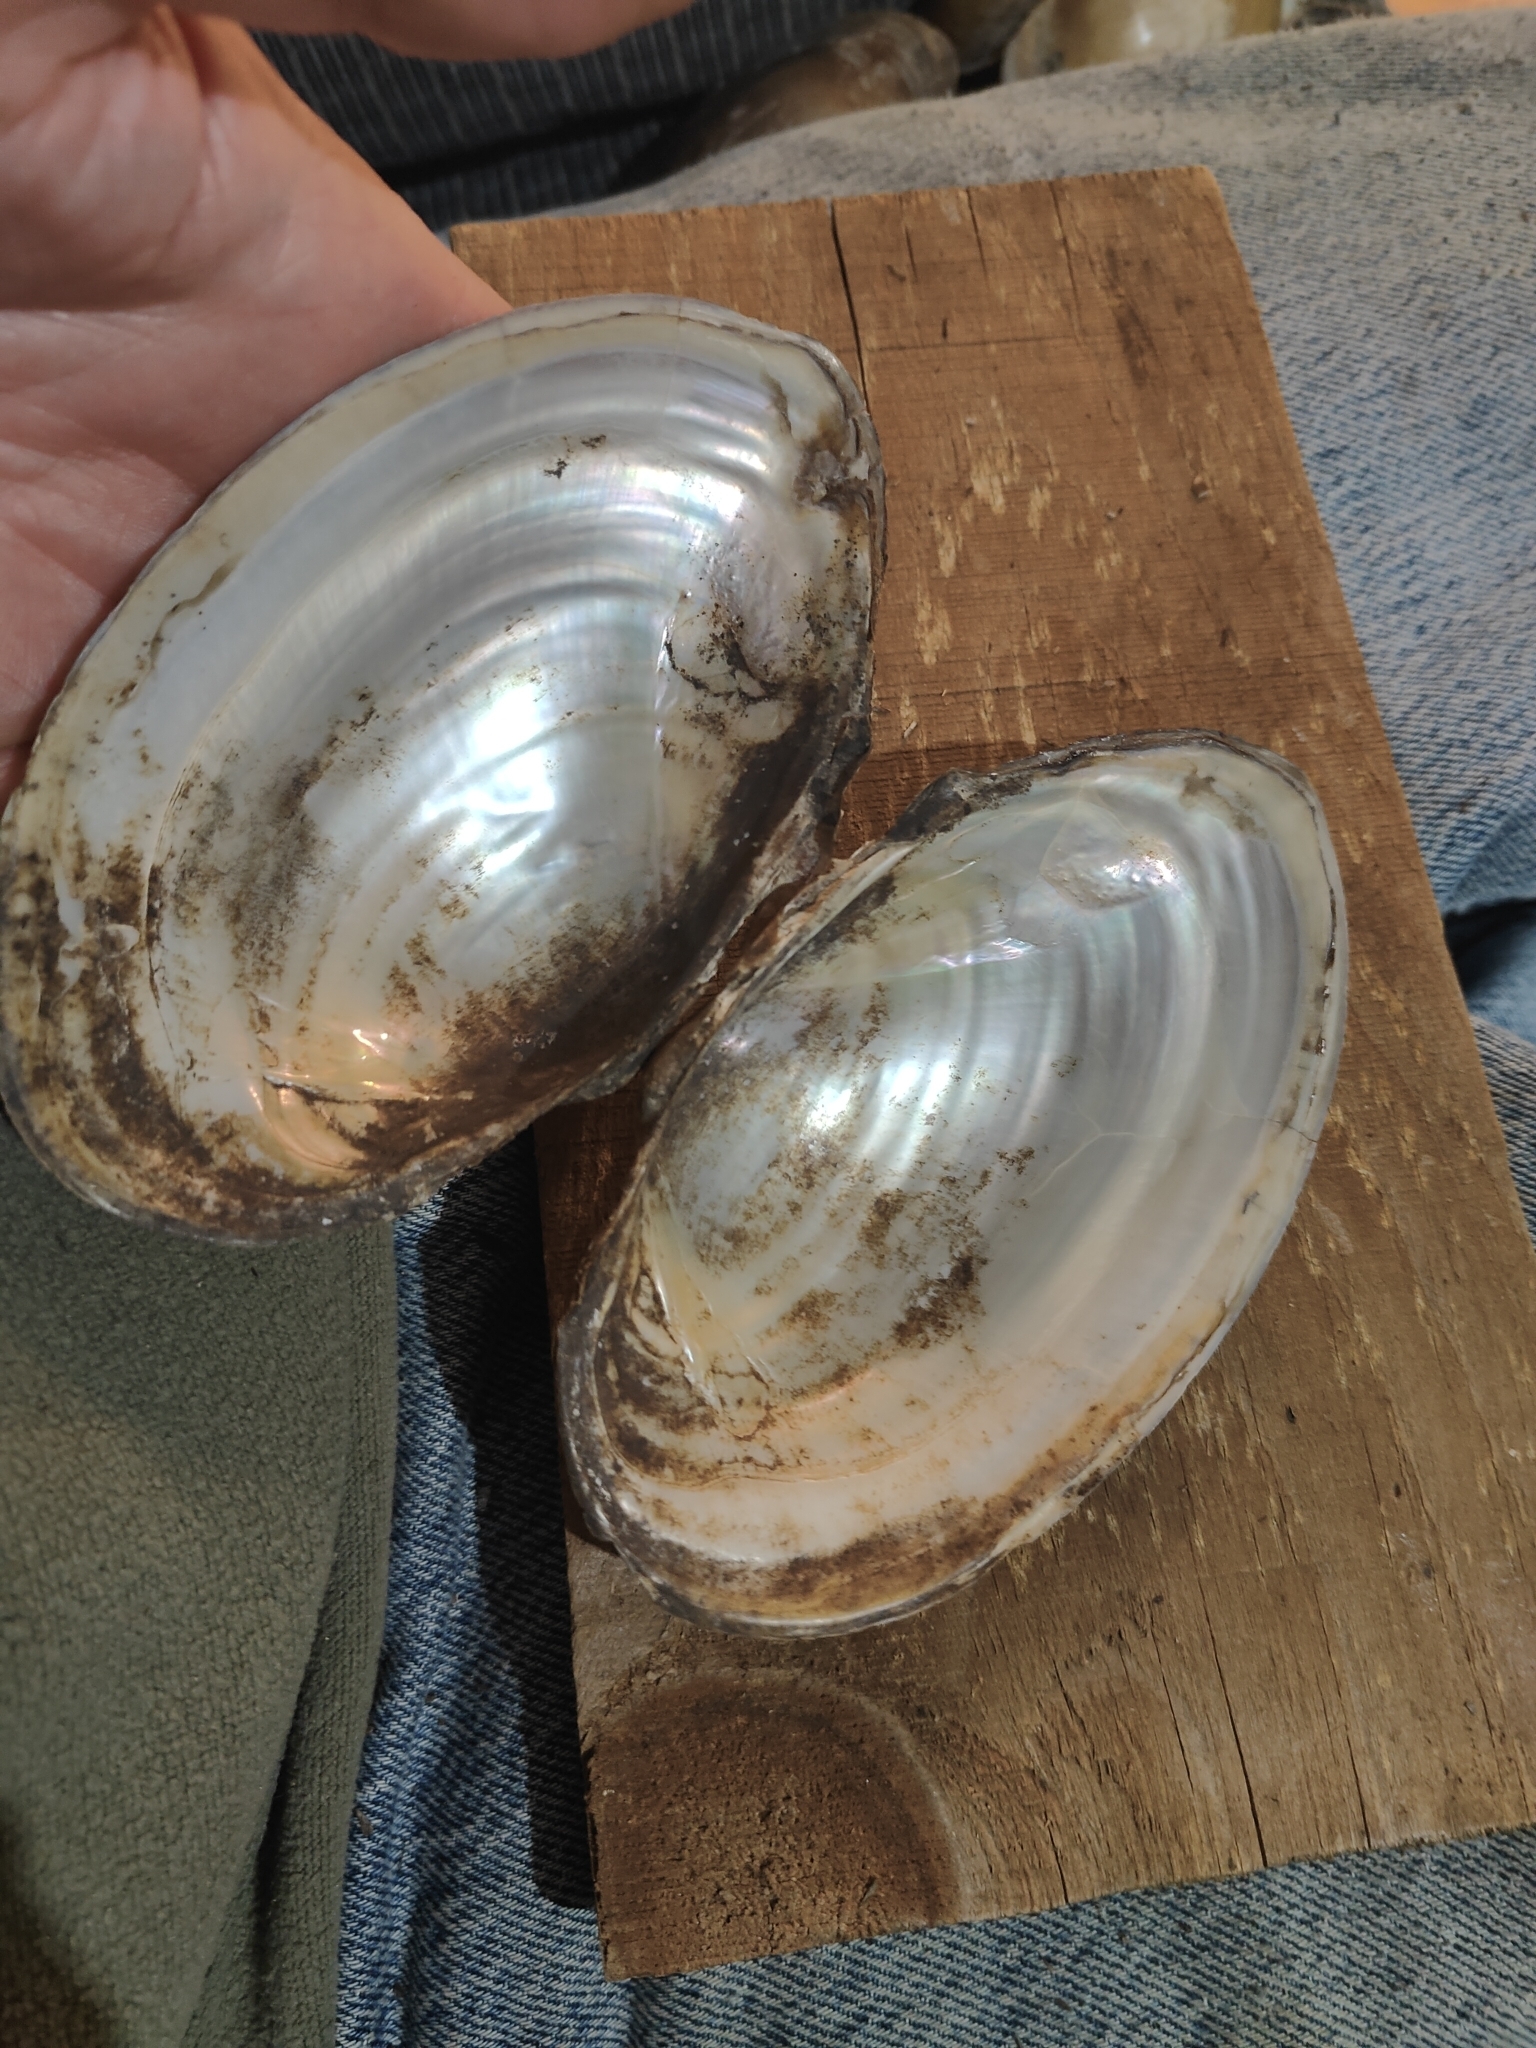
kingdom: Animalia
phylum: Mollusca
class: Bivalvia
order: Unionida
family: Unionidae
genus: Pyganodon
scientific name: Pyganodon grandis
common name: Giant floater
